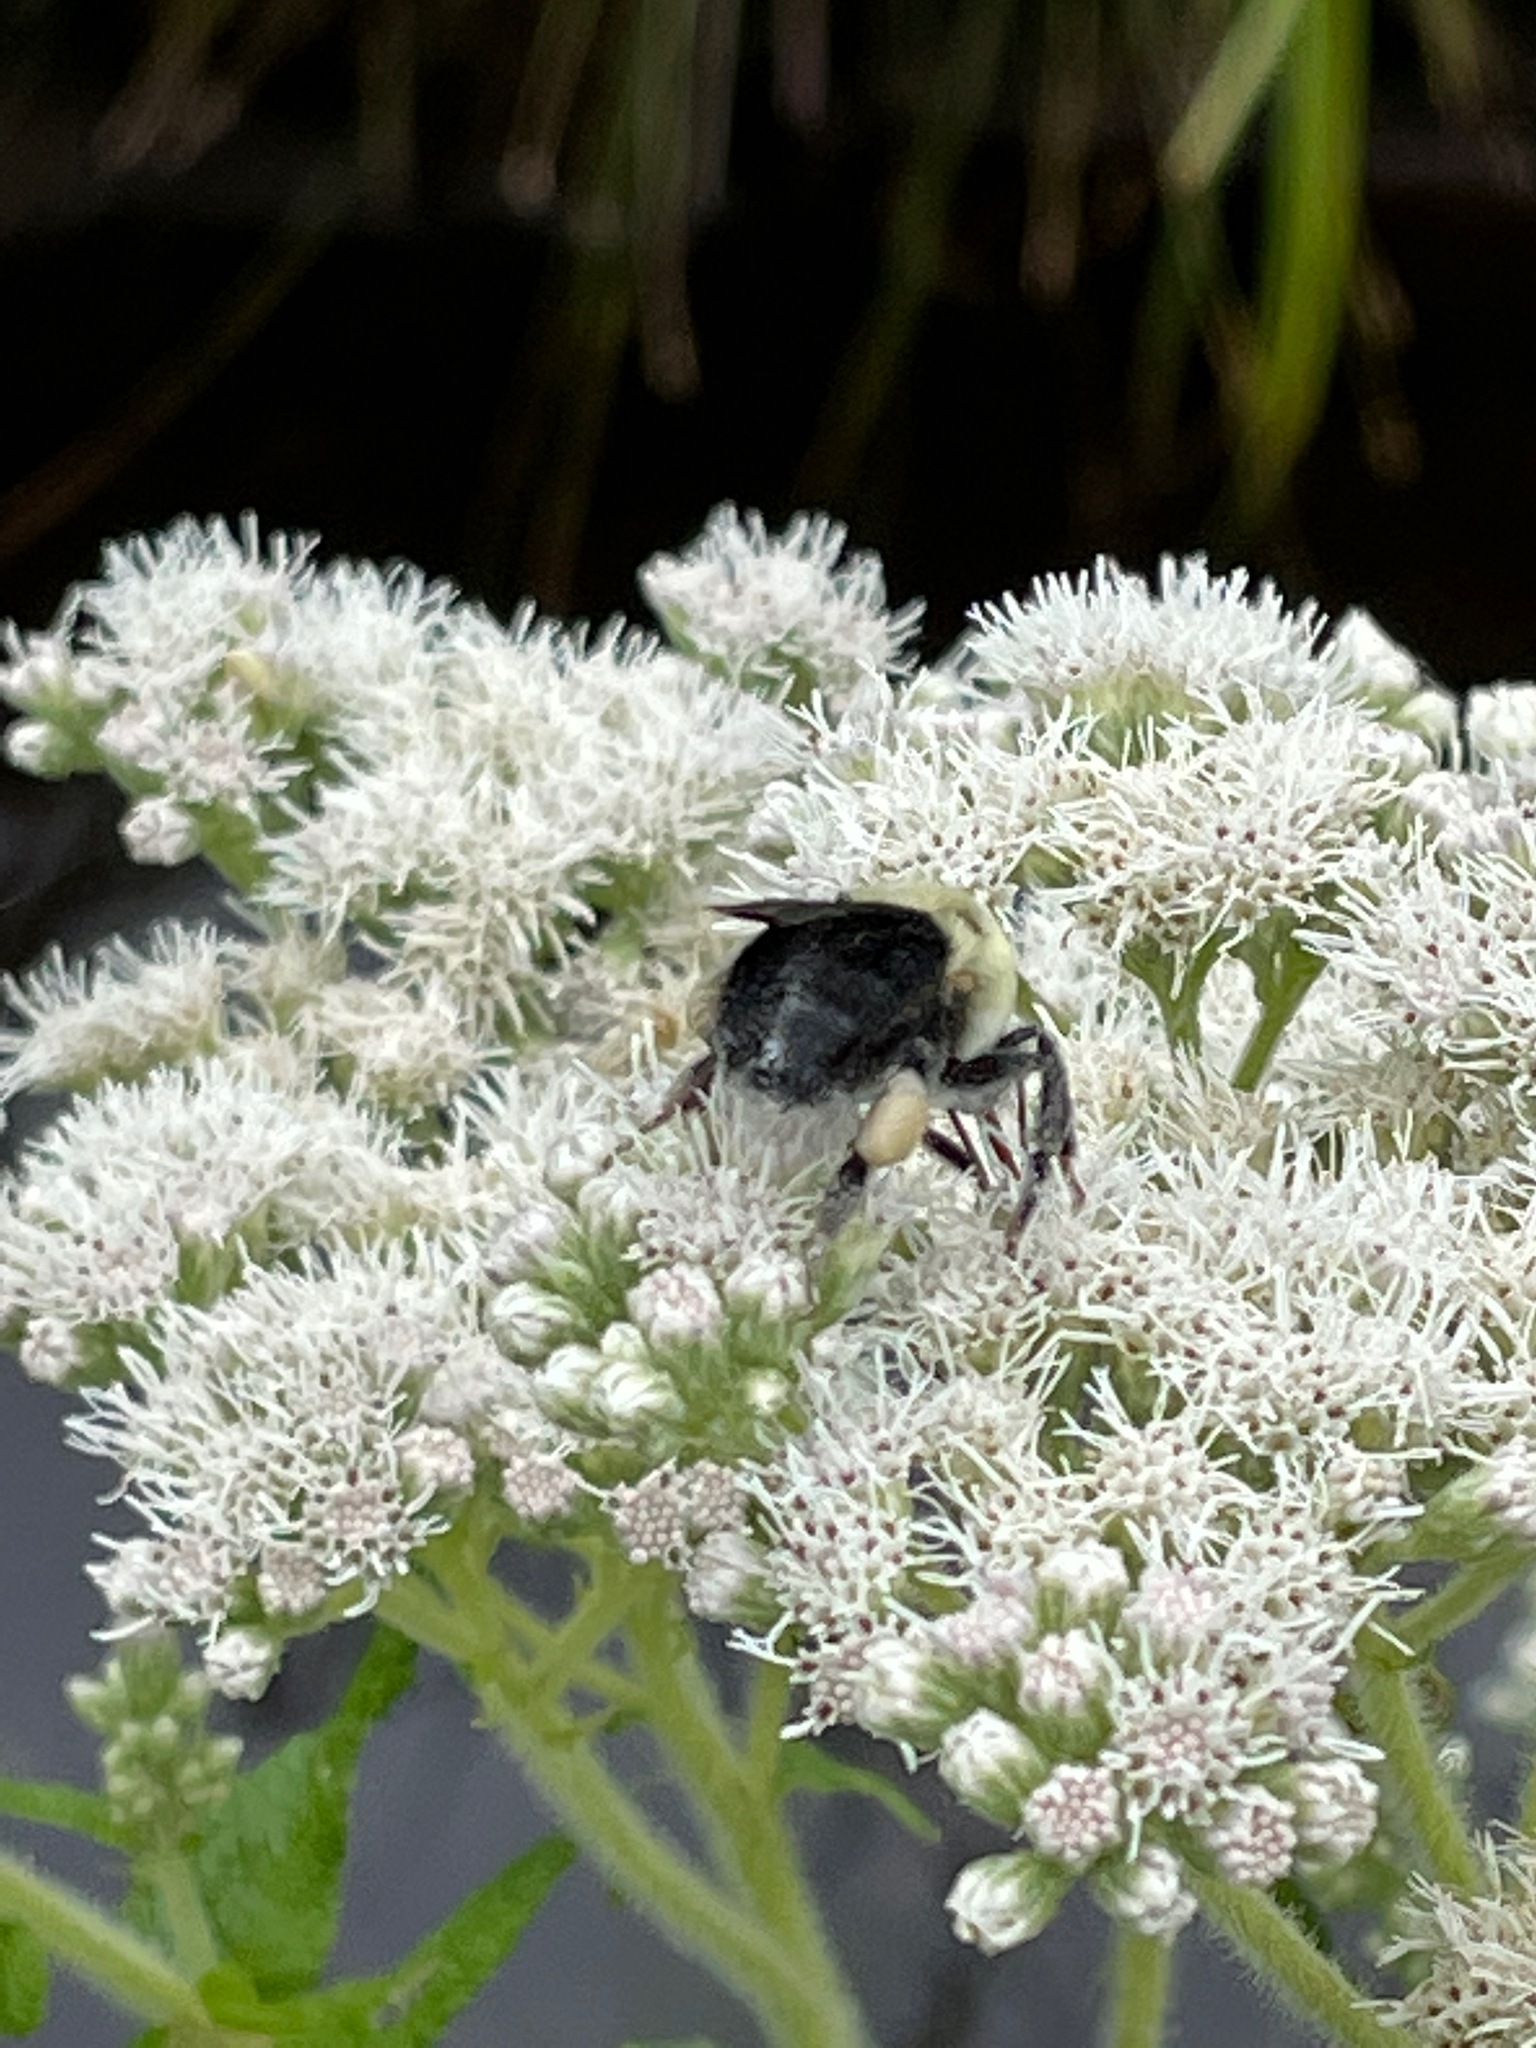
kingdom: Animalia
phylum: Arthropoda
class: Insecta
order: Hymenoptera
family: Apidae
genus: Bombus
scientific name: Bombus impatiens
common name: Common eastern bumble bee
